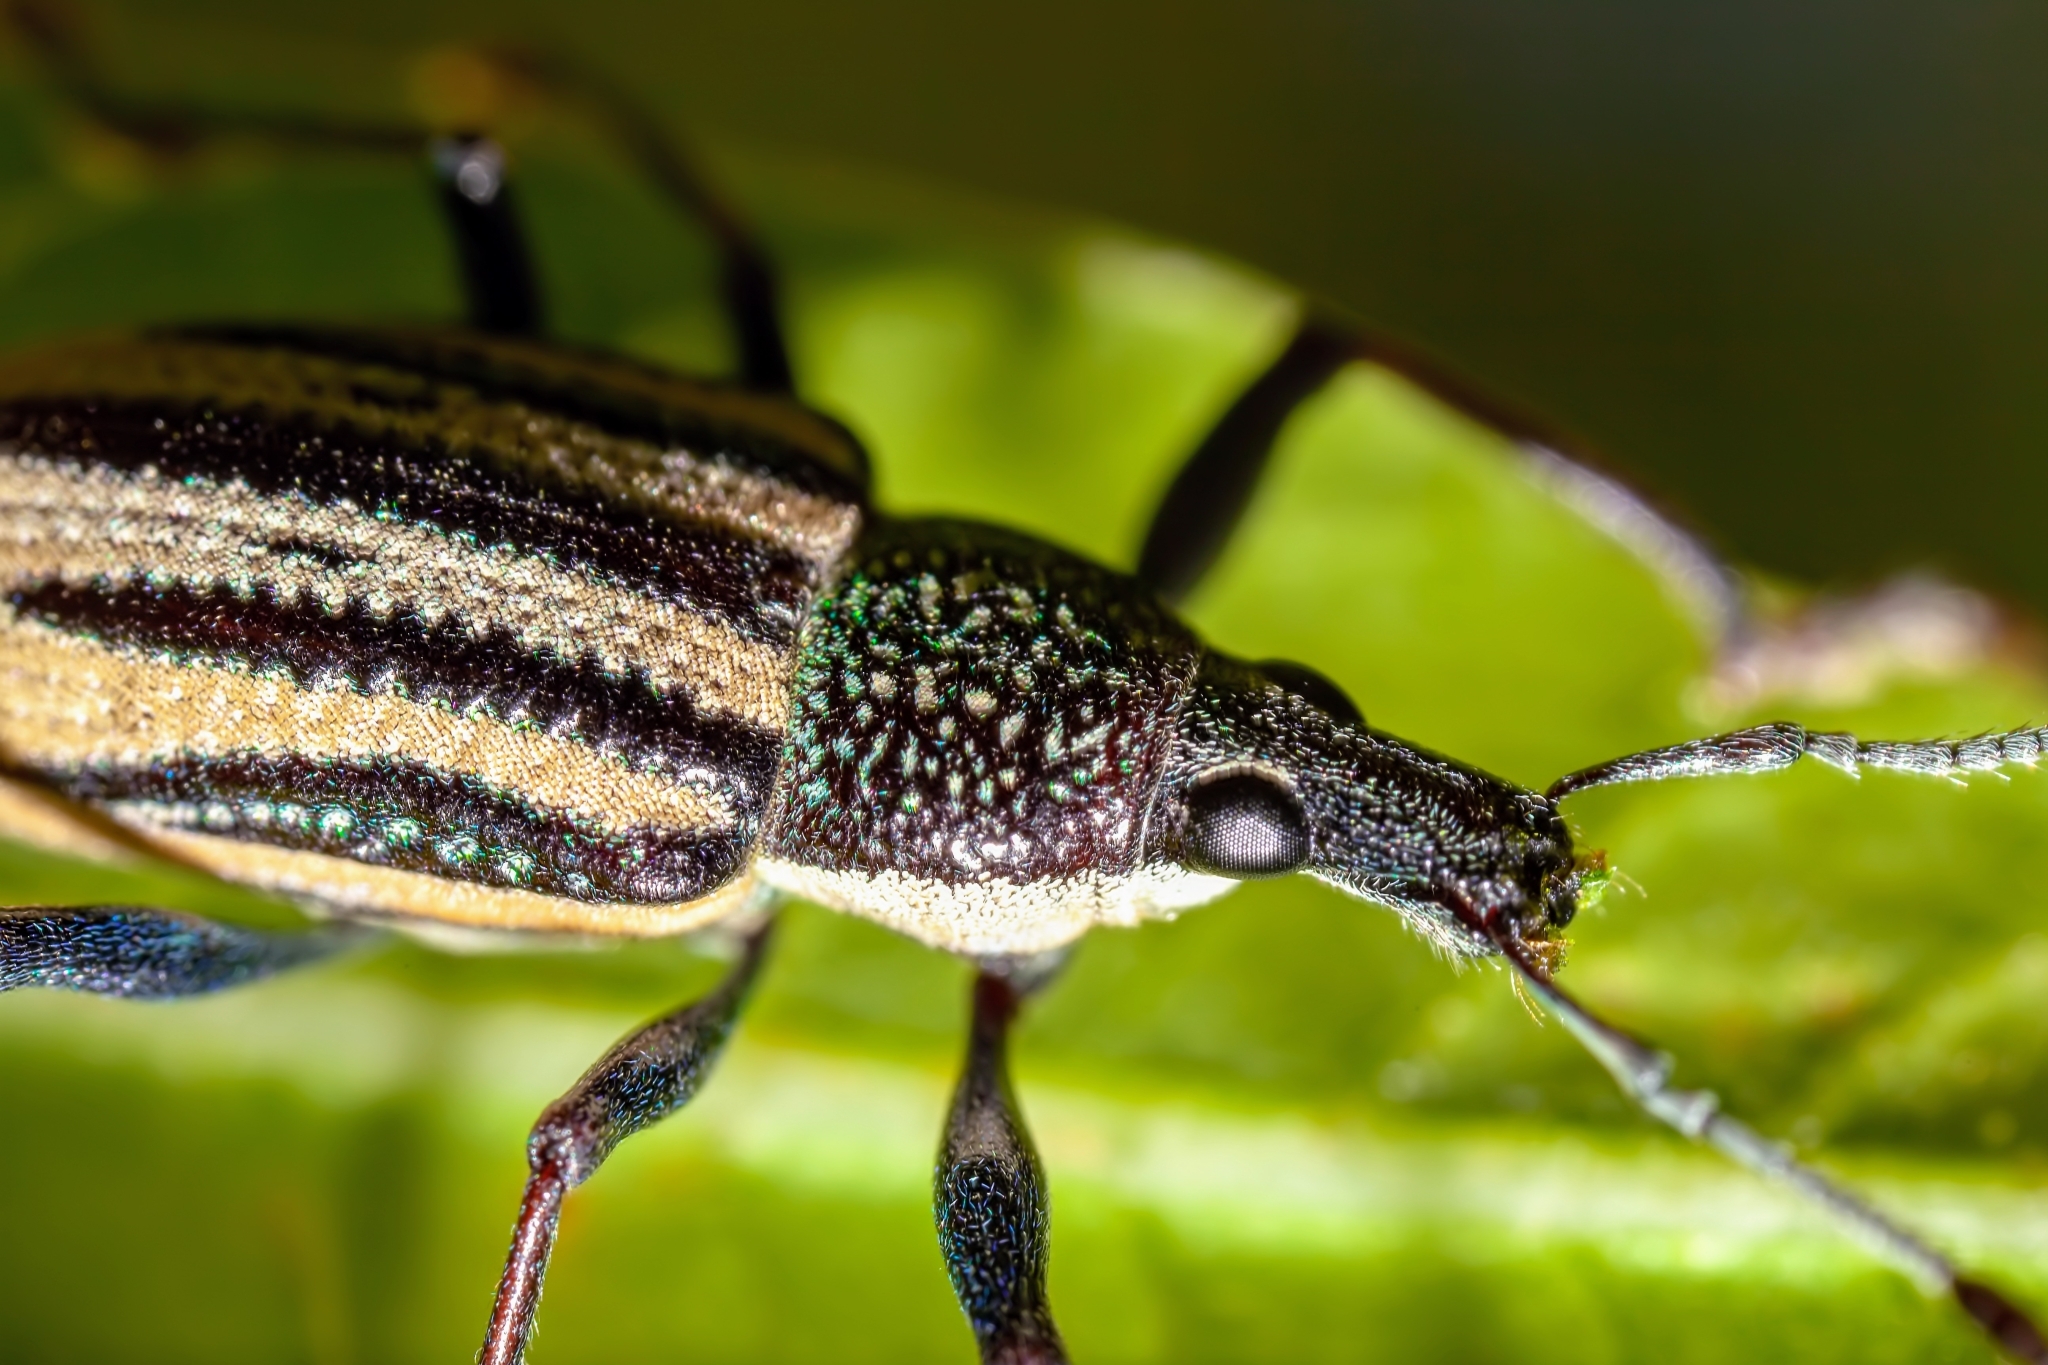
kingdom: Animalia
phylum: Arthropoda
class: Insecta
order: Coleoptera
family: Curculionidae
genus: Diaprepes
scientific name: Diaprepes abbreviatus
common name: Root weevil
